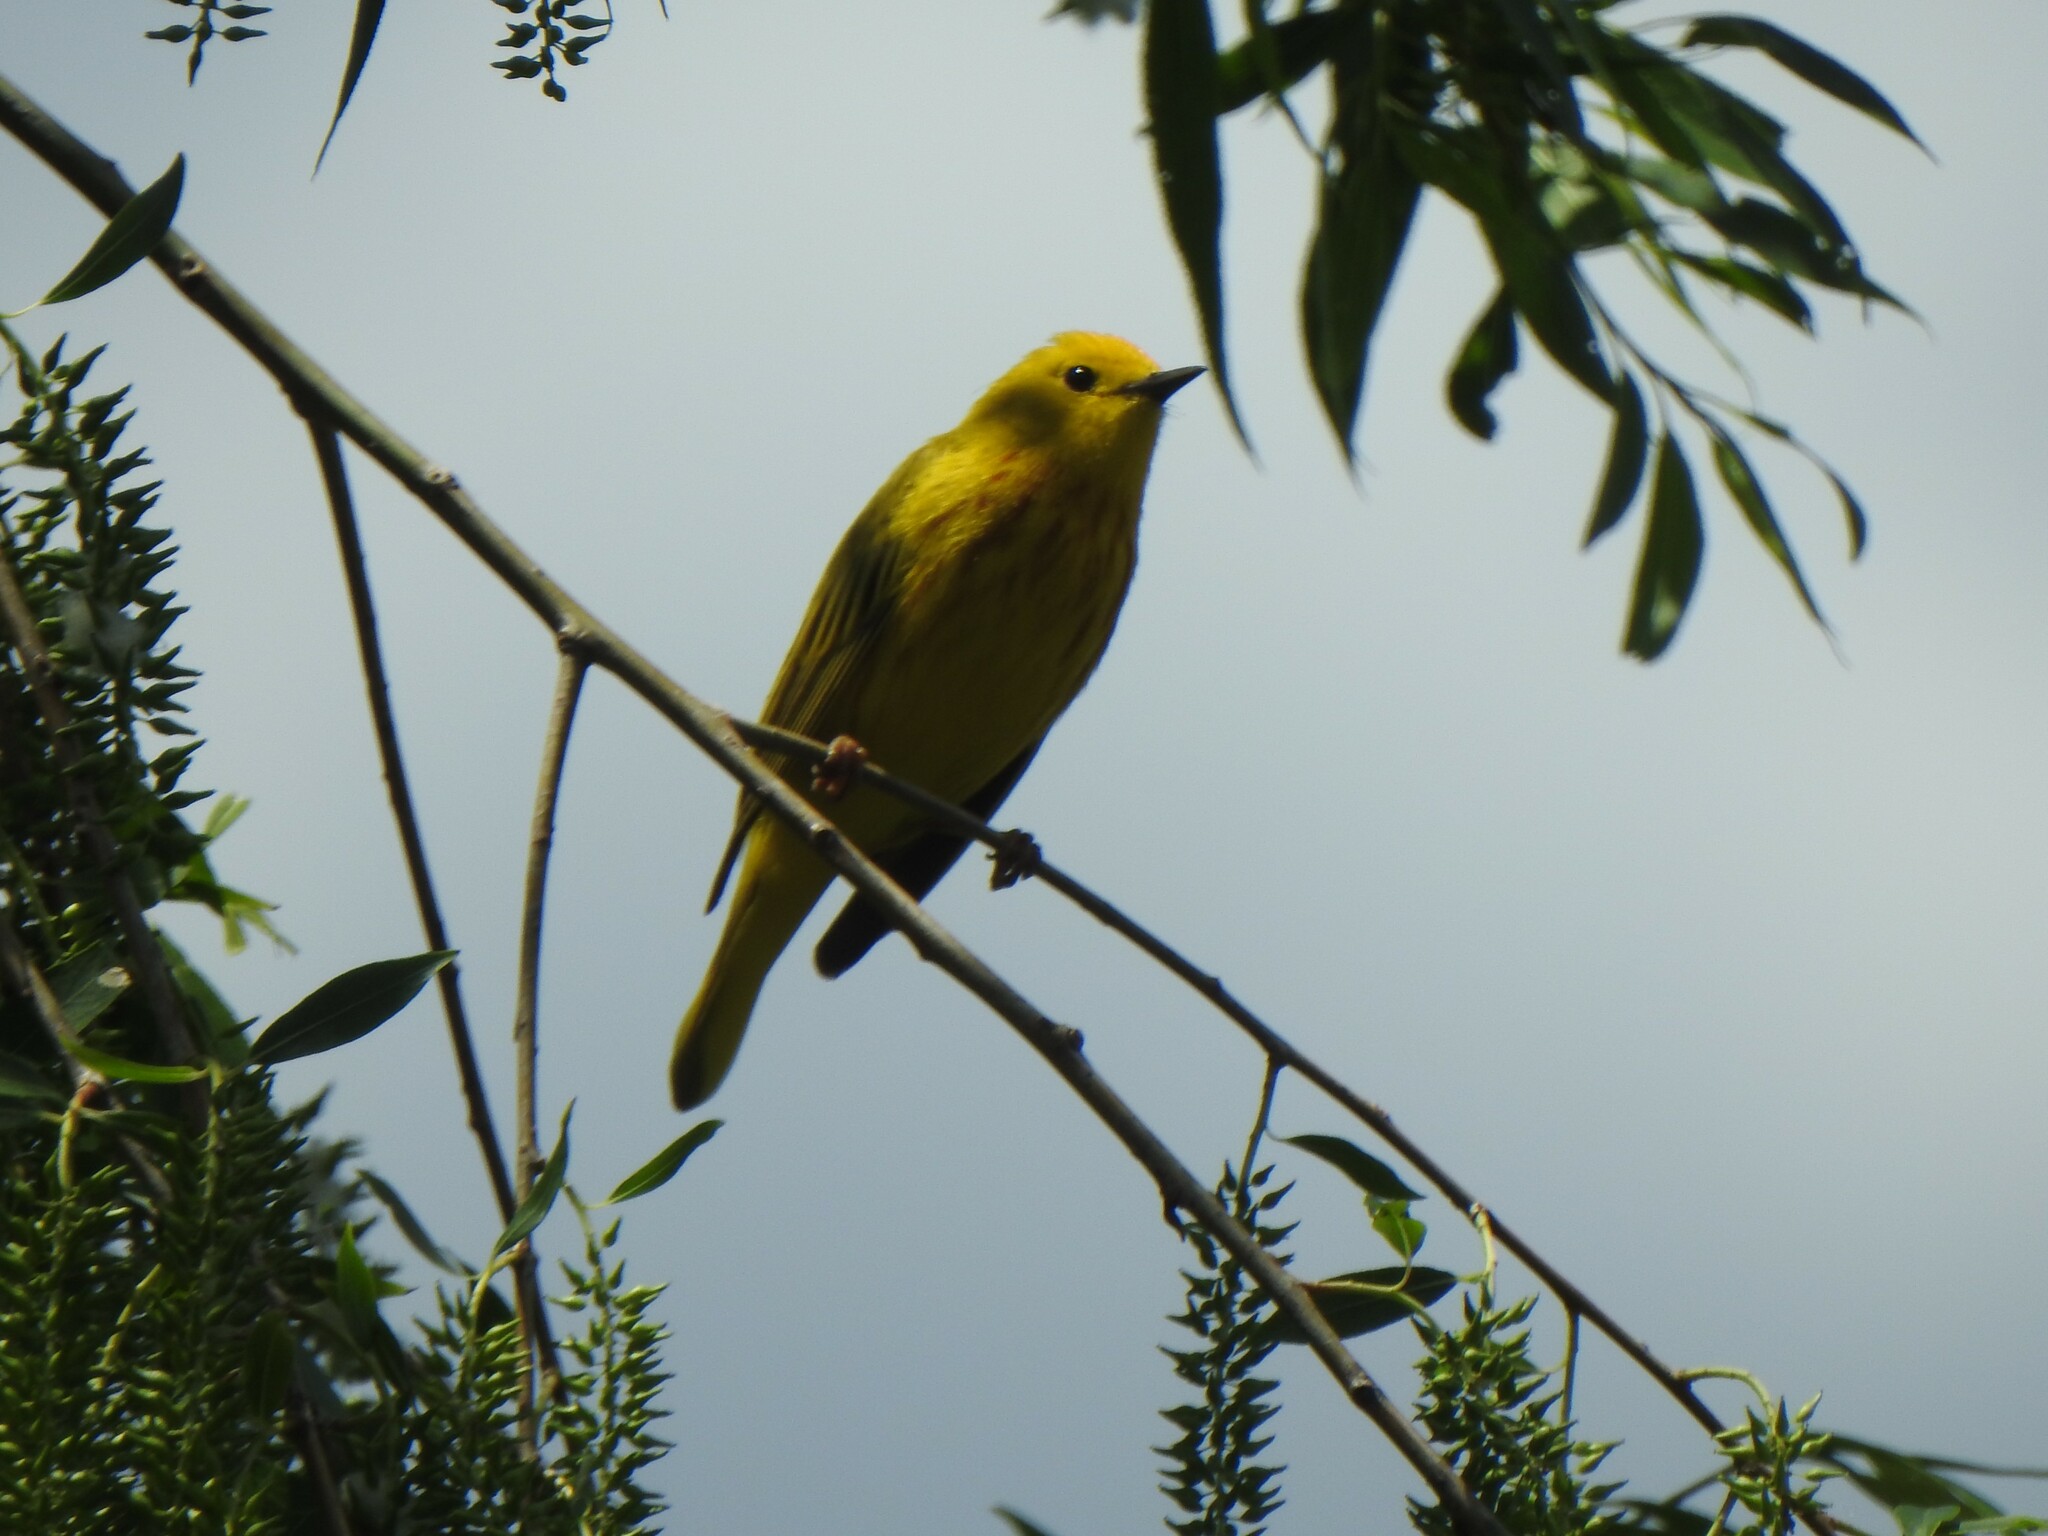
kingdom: Animalia
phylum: Chordata
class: Aves
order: Passeriformes
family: Parulidae
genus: Setophaga
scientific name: Setophaga petechia
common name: Yellow warbler
